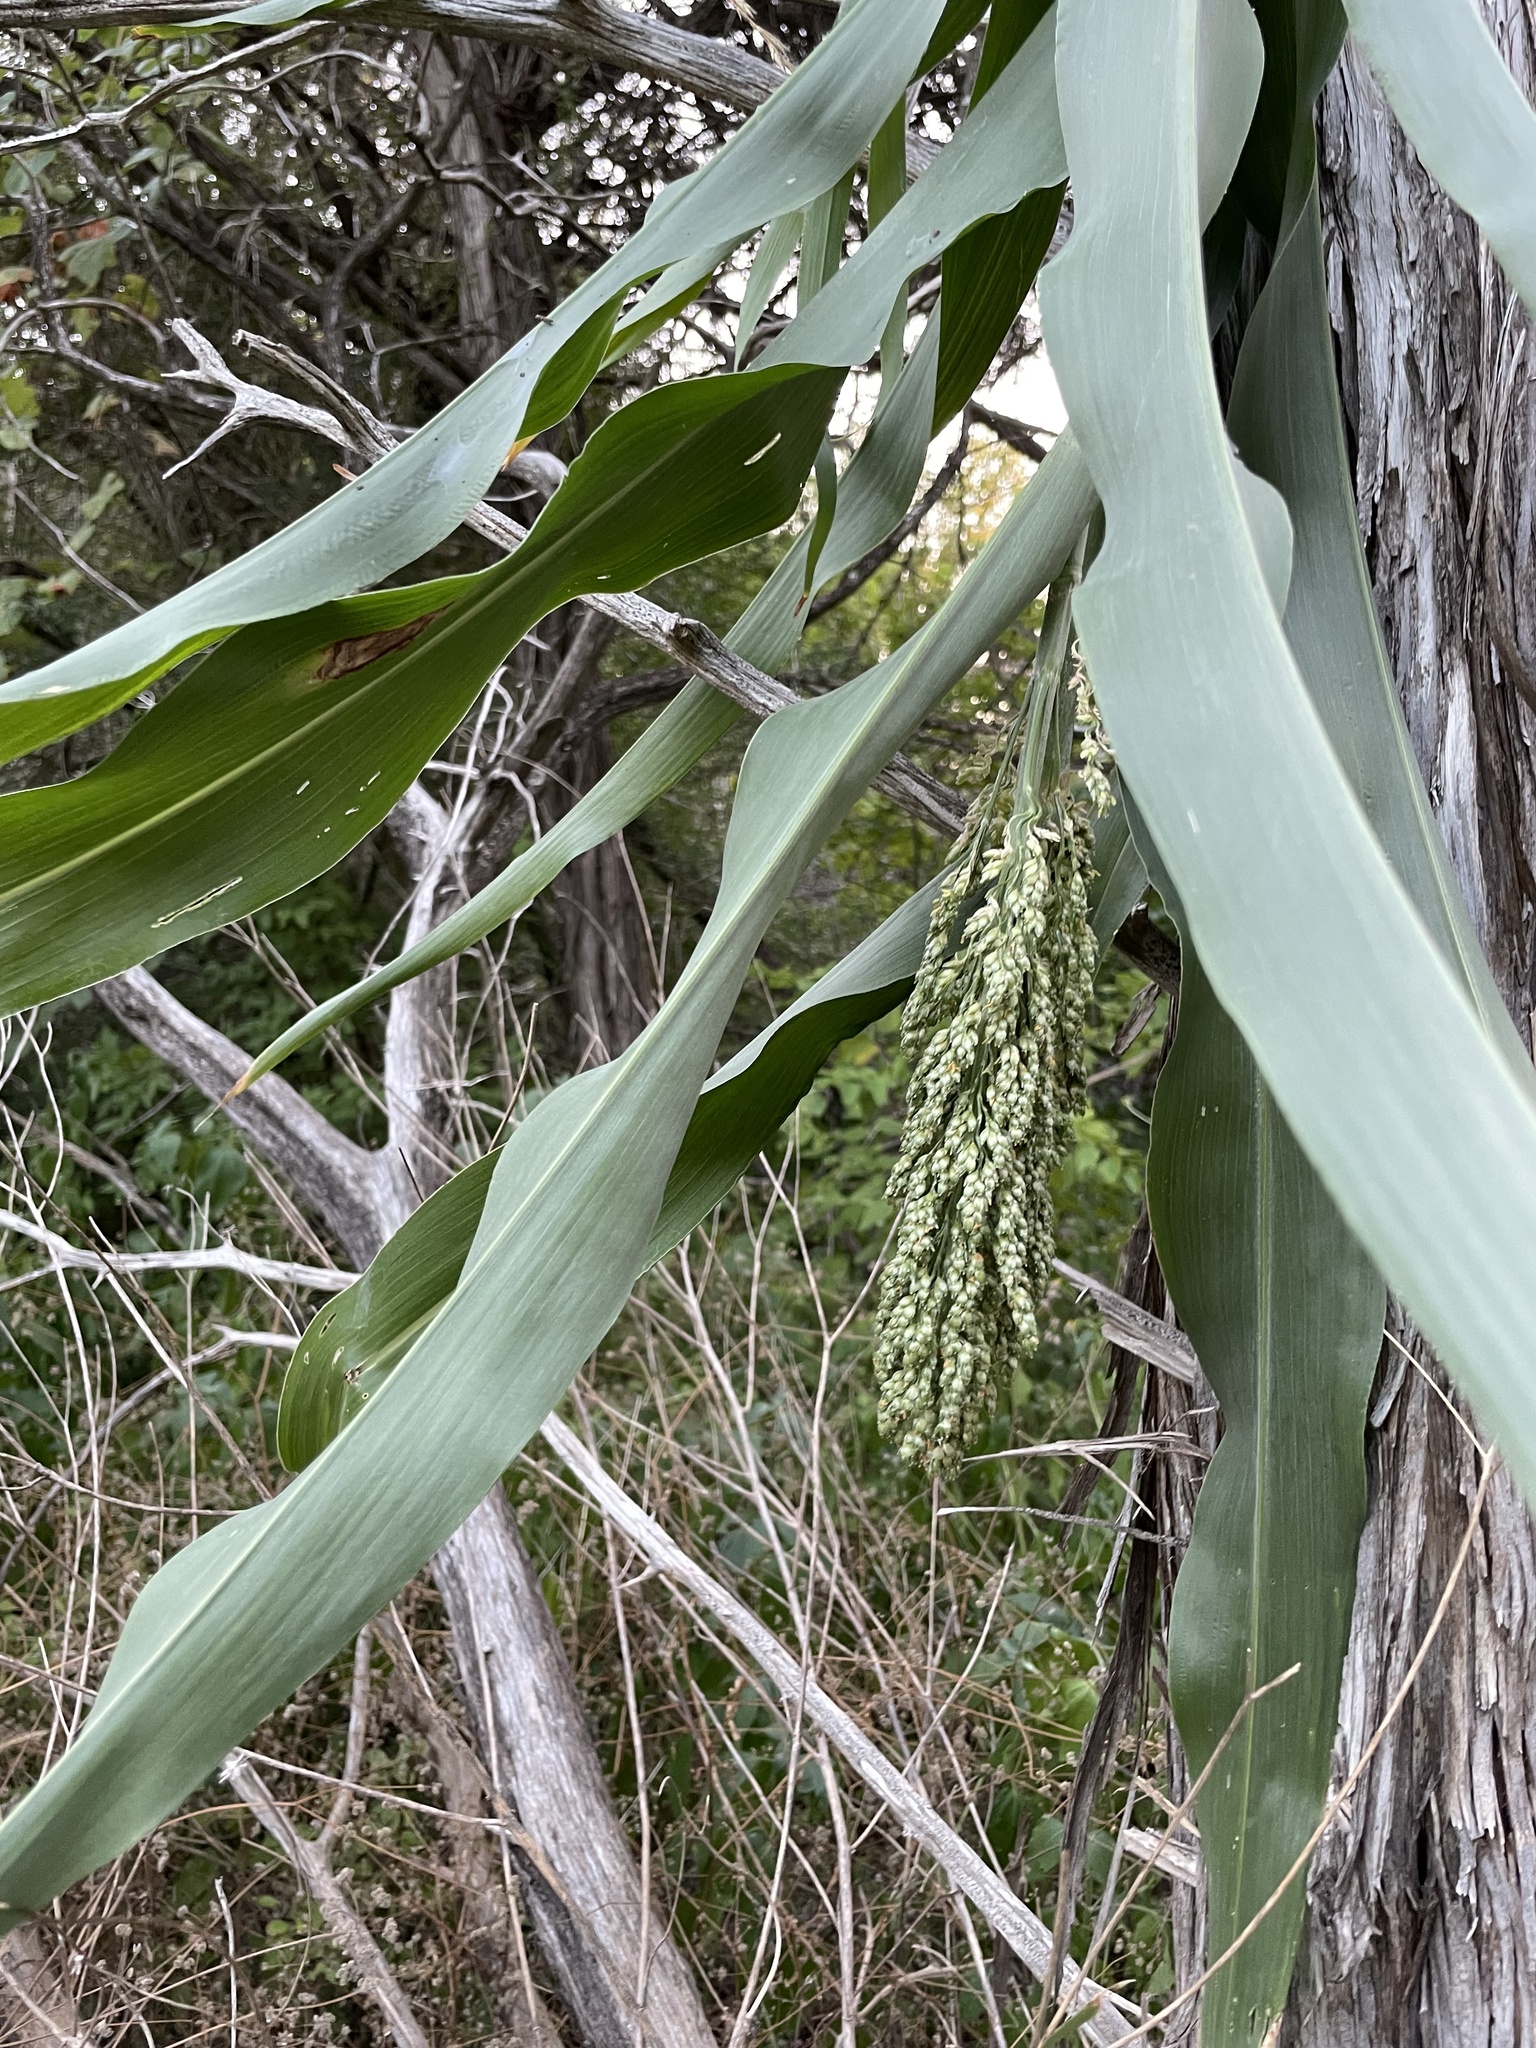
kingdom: Plantae
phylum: Tracheophyta
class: Liliopsida
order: Poales
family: Poaceae
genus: Sorghum
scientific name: Sorghum bicolor
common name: Sorghum
